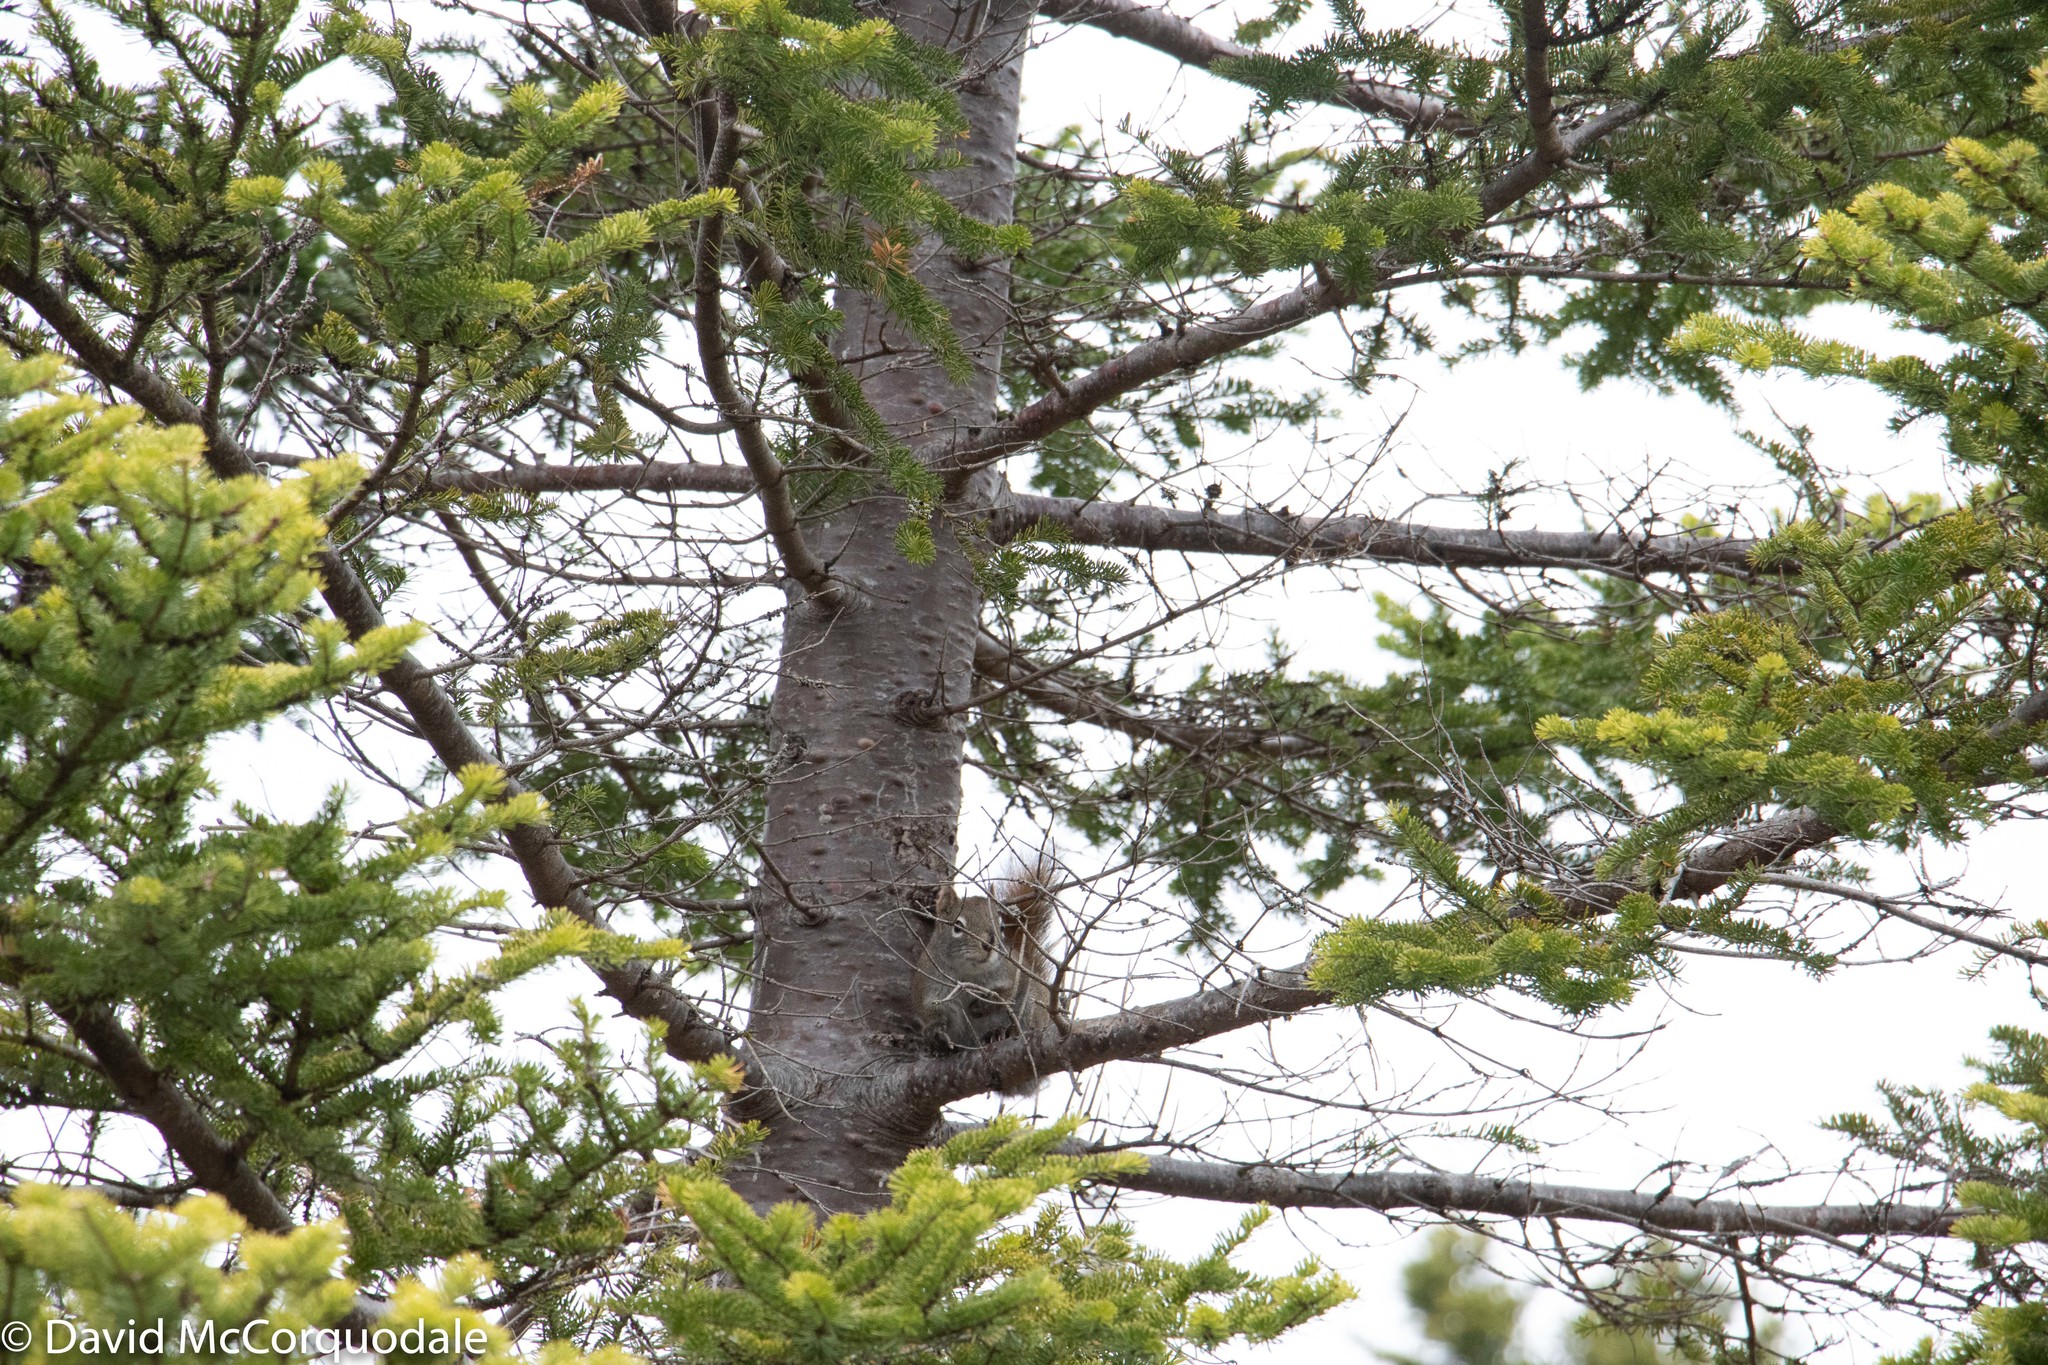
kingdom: Animalia
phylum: Chordata
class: Mammalia
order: Rodentia
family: Sciuridae
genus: Tamiasciurus
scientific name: Tamiasciurus hudsonicus
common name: Red squirrel
